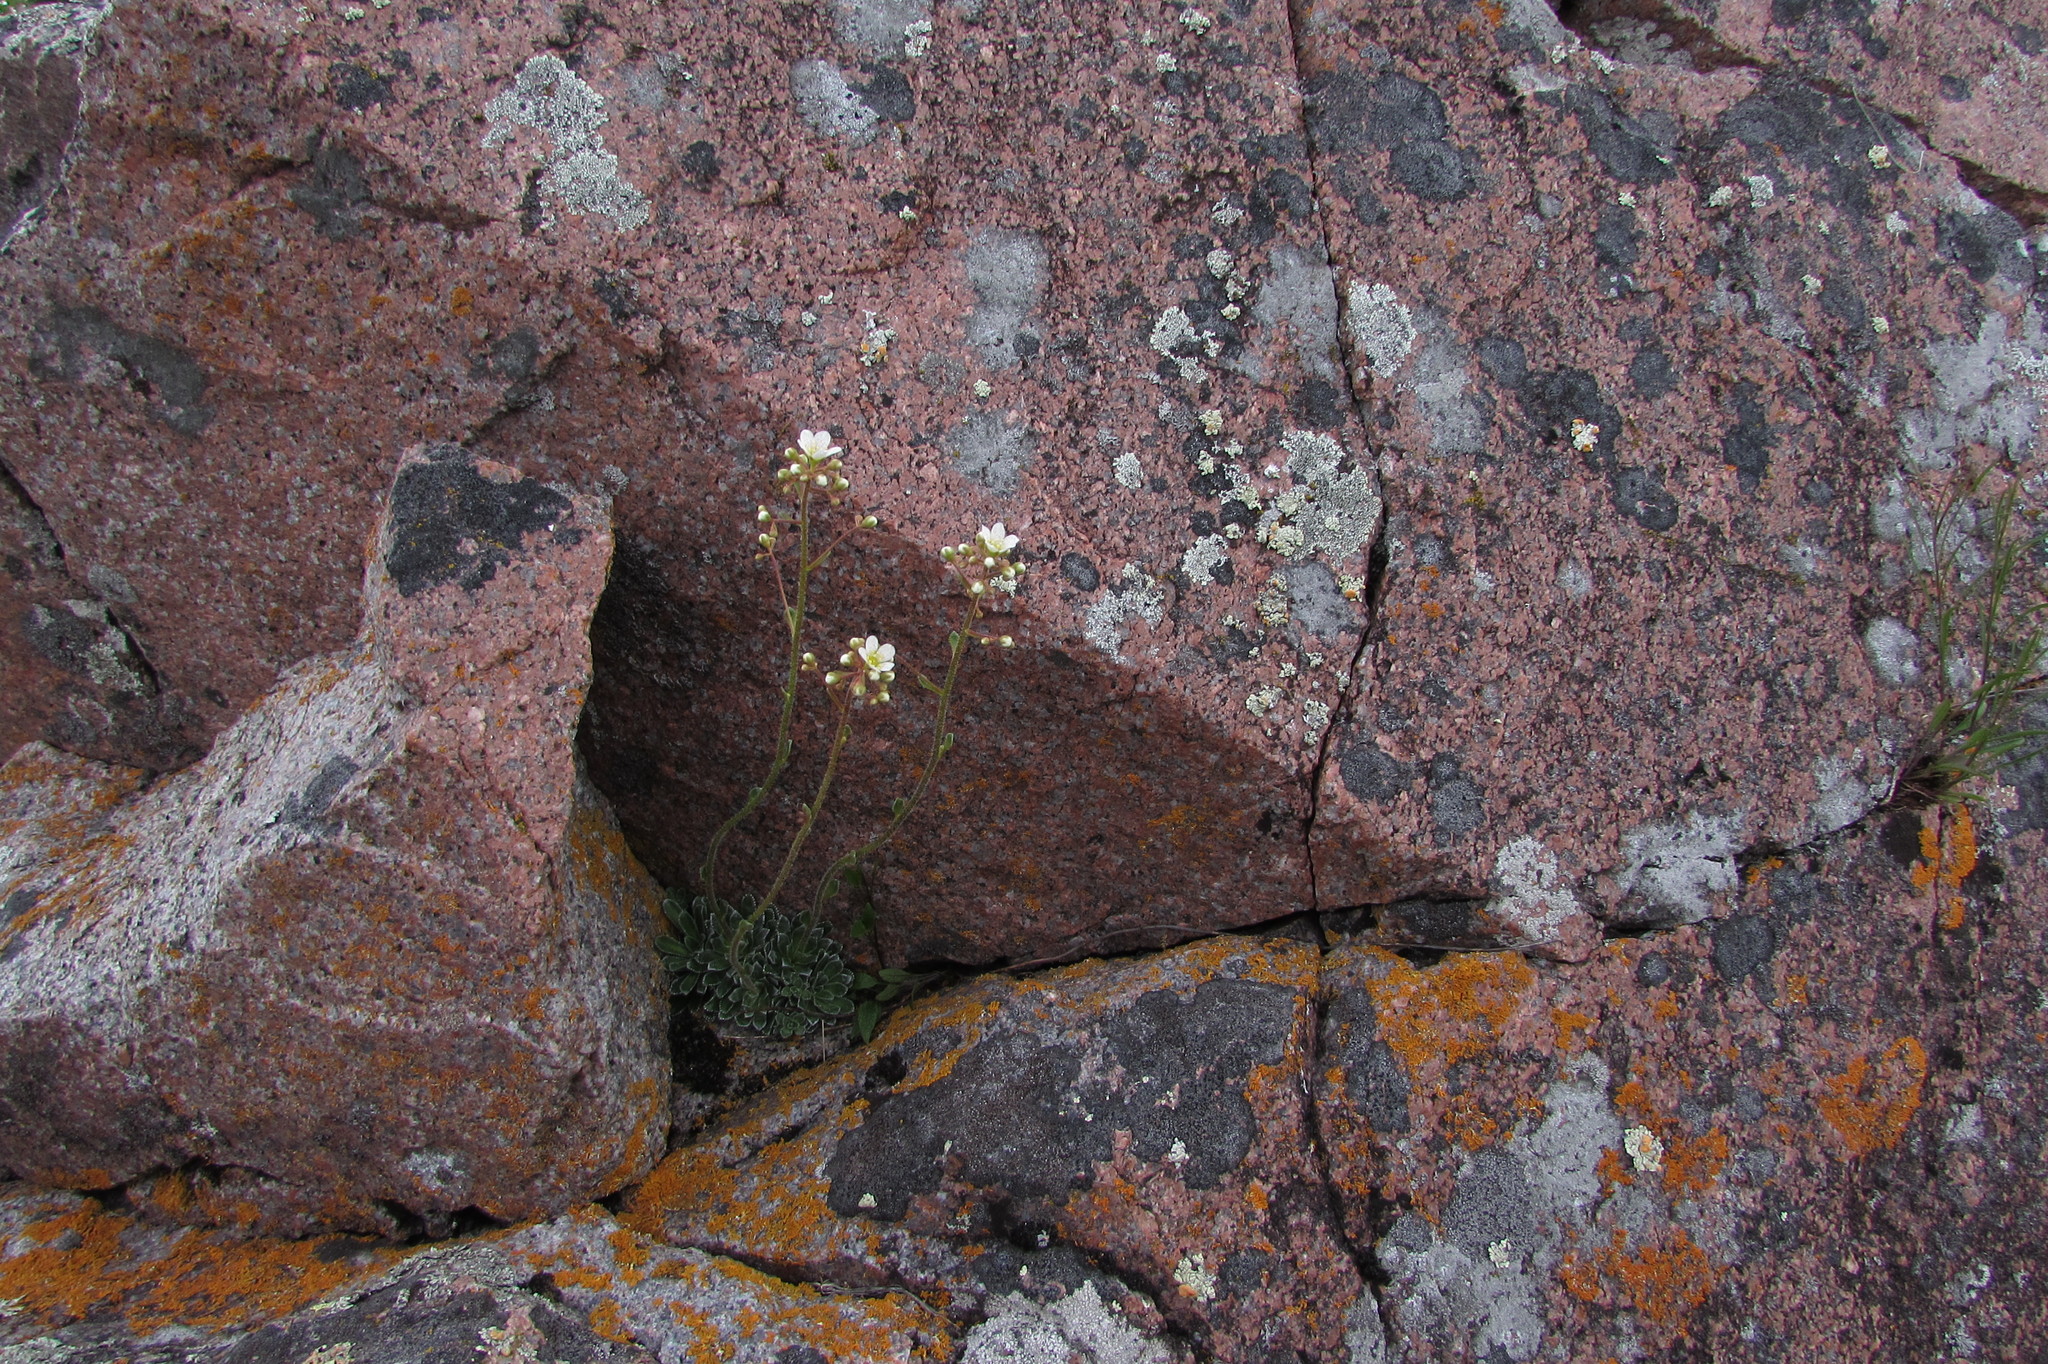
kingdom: Plantae
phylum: Tracheophyta
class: Magnoliopsida
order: Saxifragales
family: Saxifragaceae
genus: Saxifraga
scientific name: Saxifraga paniculata
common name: Livelong saxifrage
